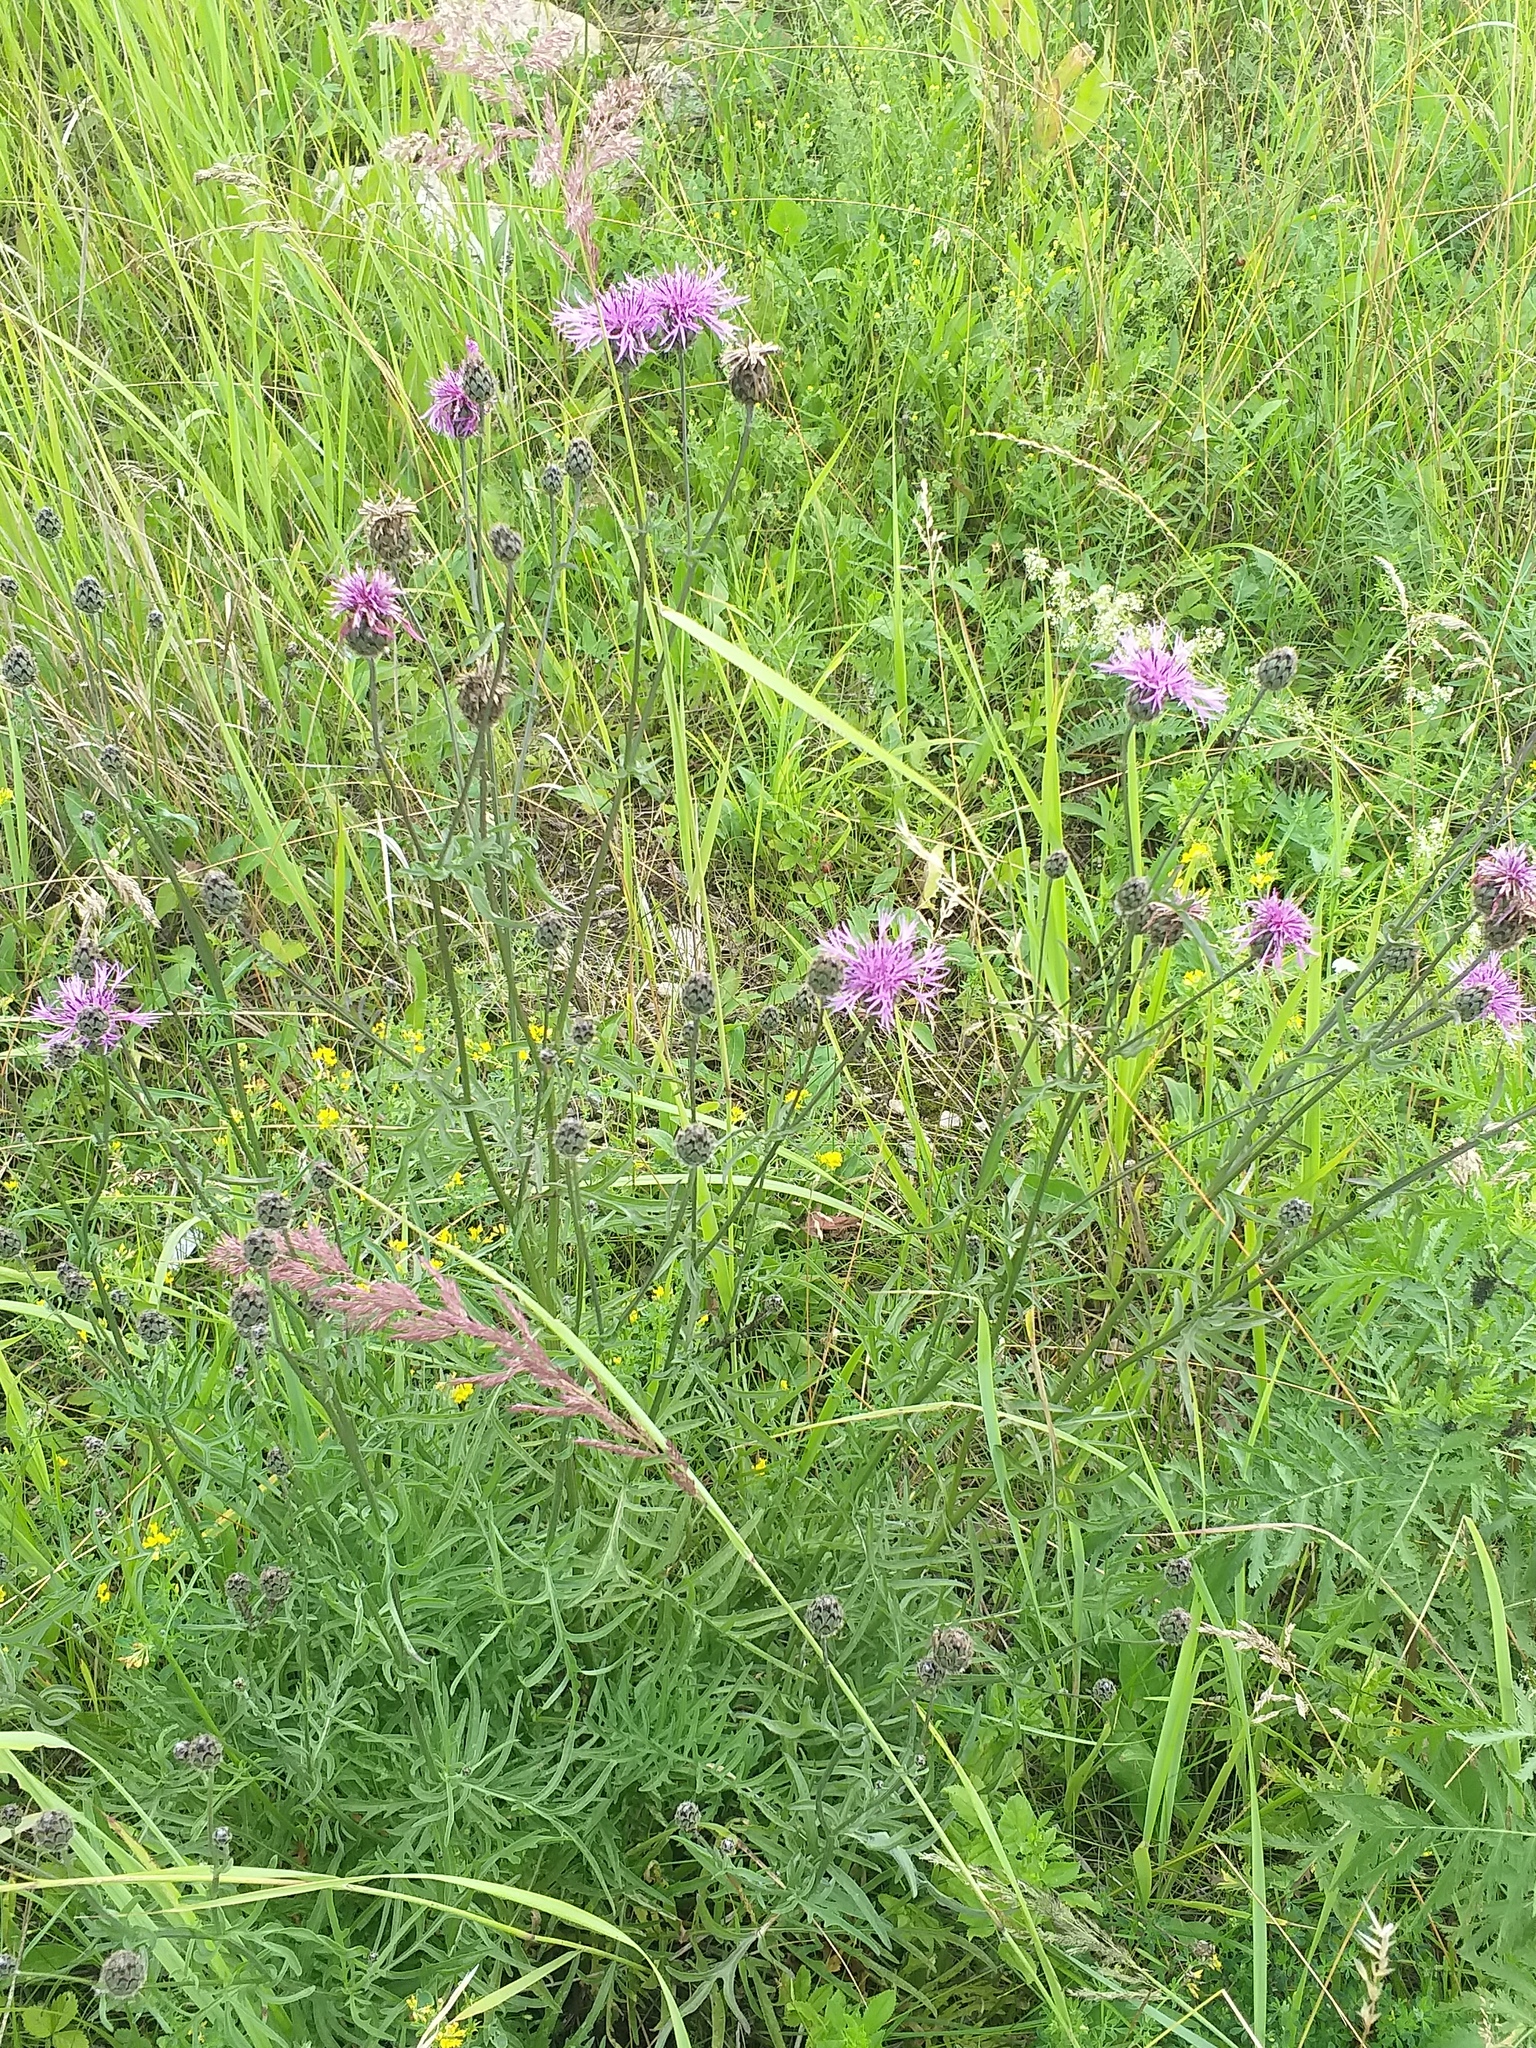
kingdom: Plantae
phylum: Tracheophyta
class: Magnoliopsida
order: Asterales
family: Asteraceae
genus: Centaurea
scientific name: Centaurea scabiosa
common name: Greater knapweed
